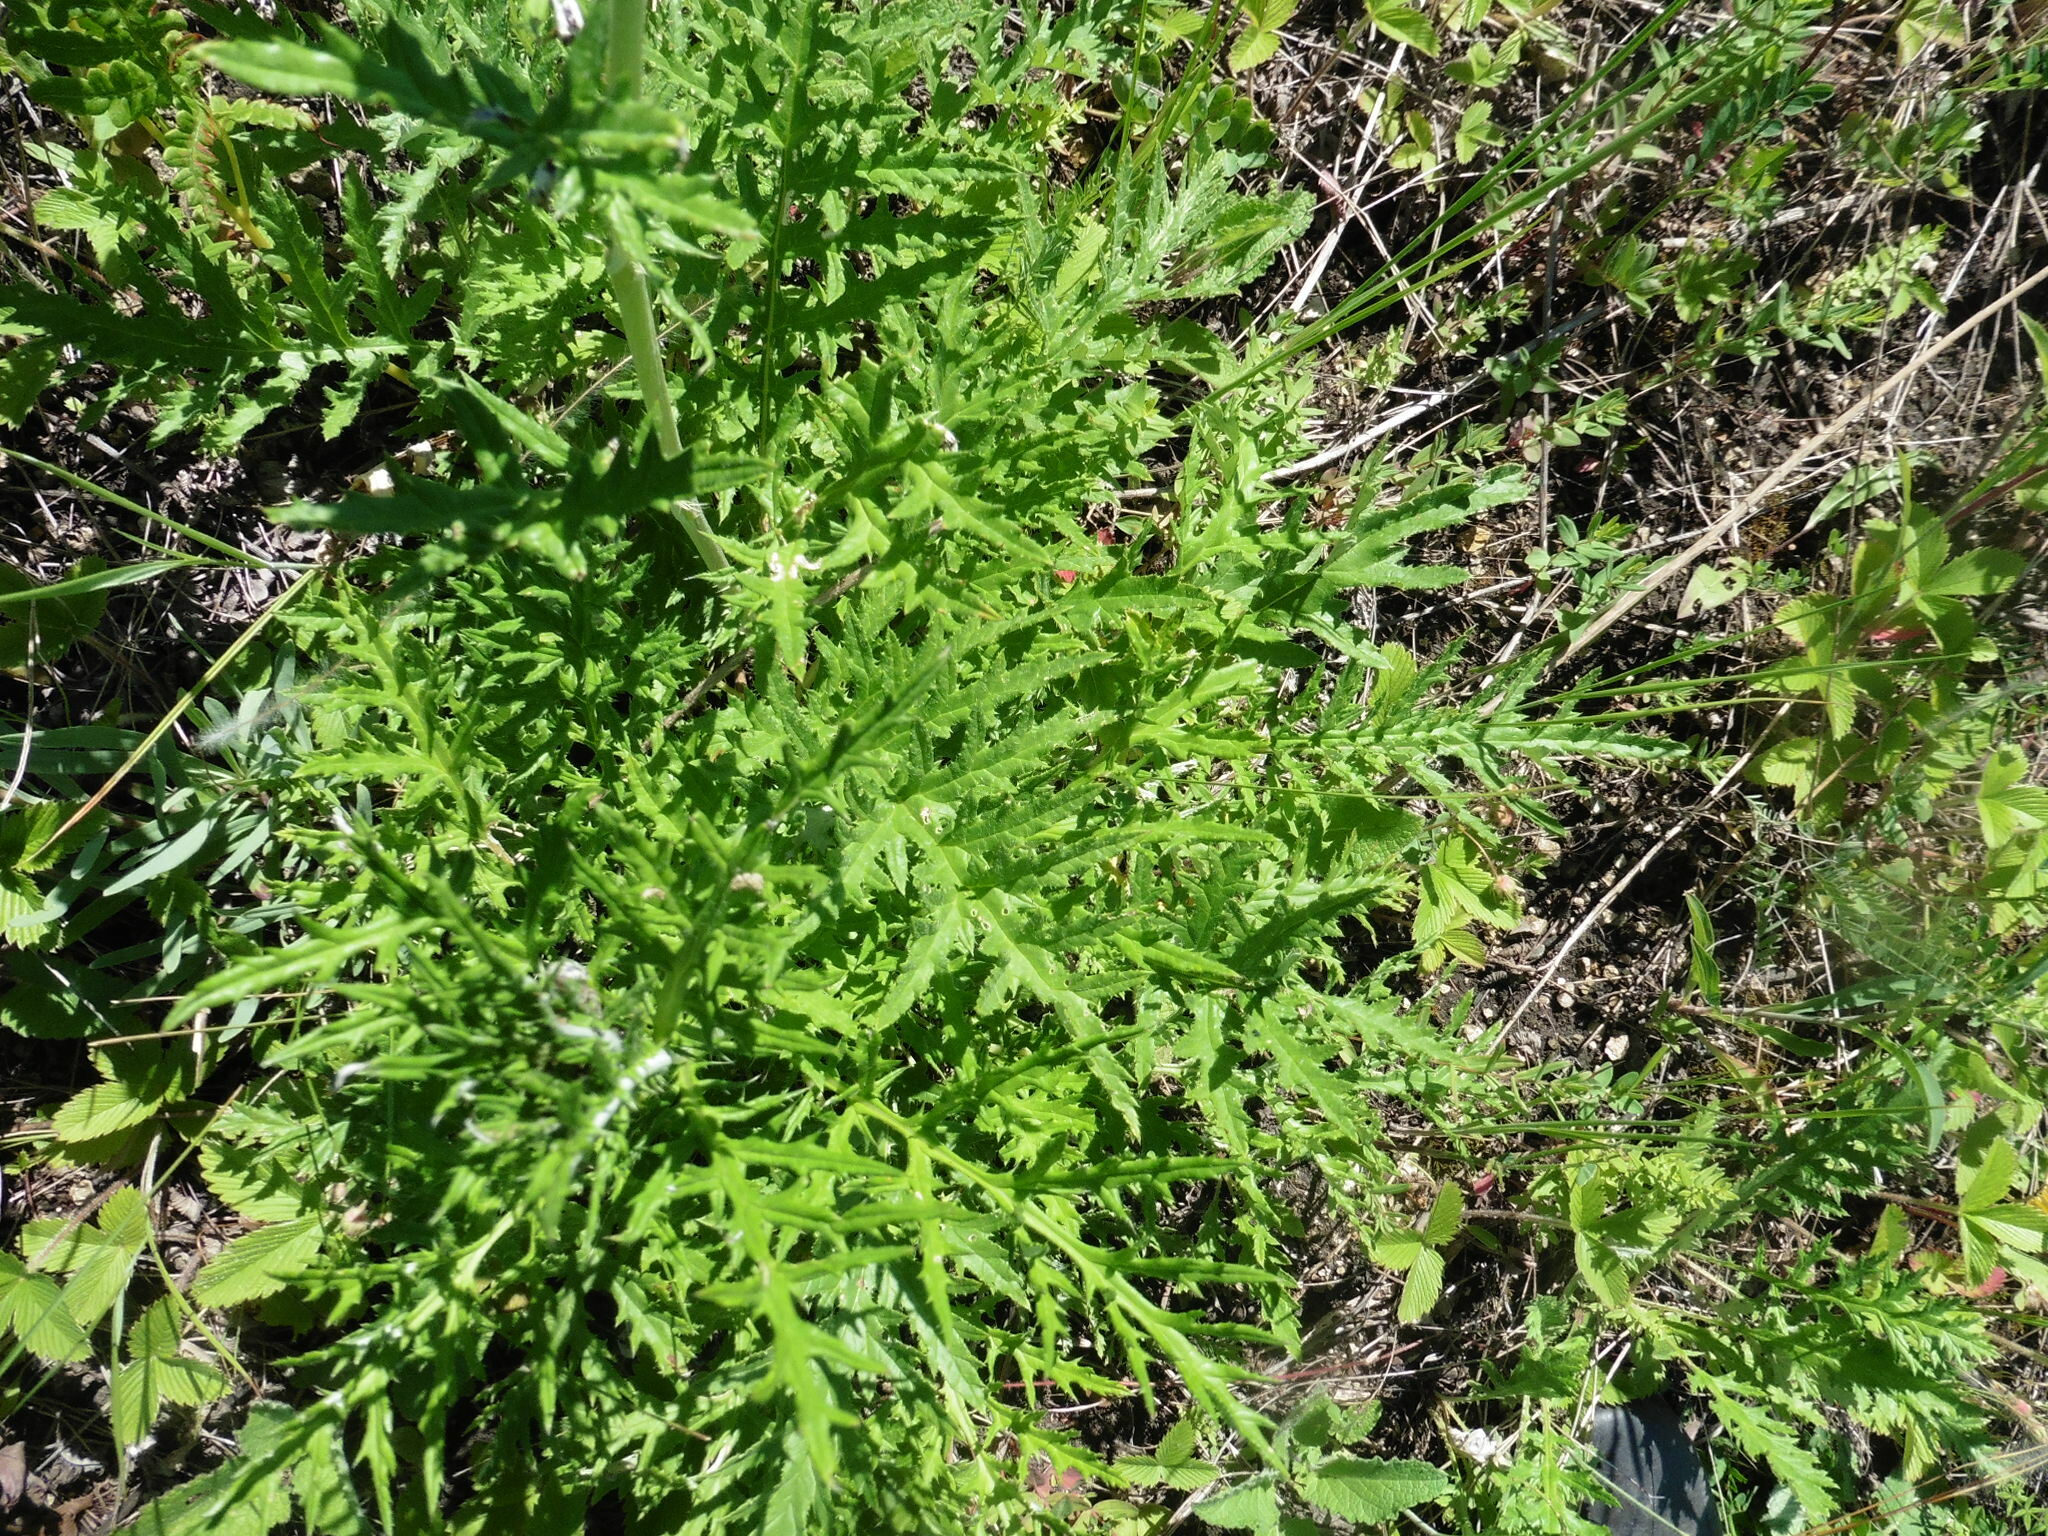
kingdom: Plantae
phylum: Tracheophyta
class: Magnoliopsida
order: Asterales
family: Asteraceae
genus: Echinops
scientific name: Echinops ritro
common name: Globe thistle
